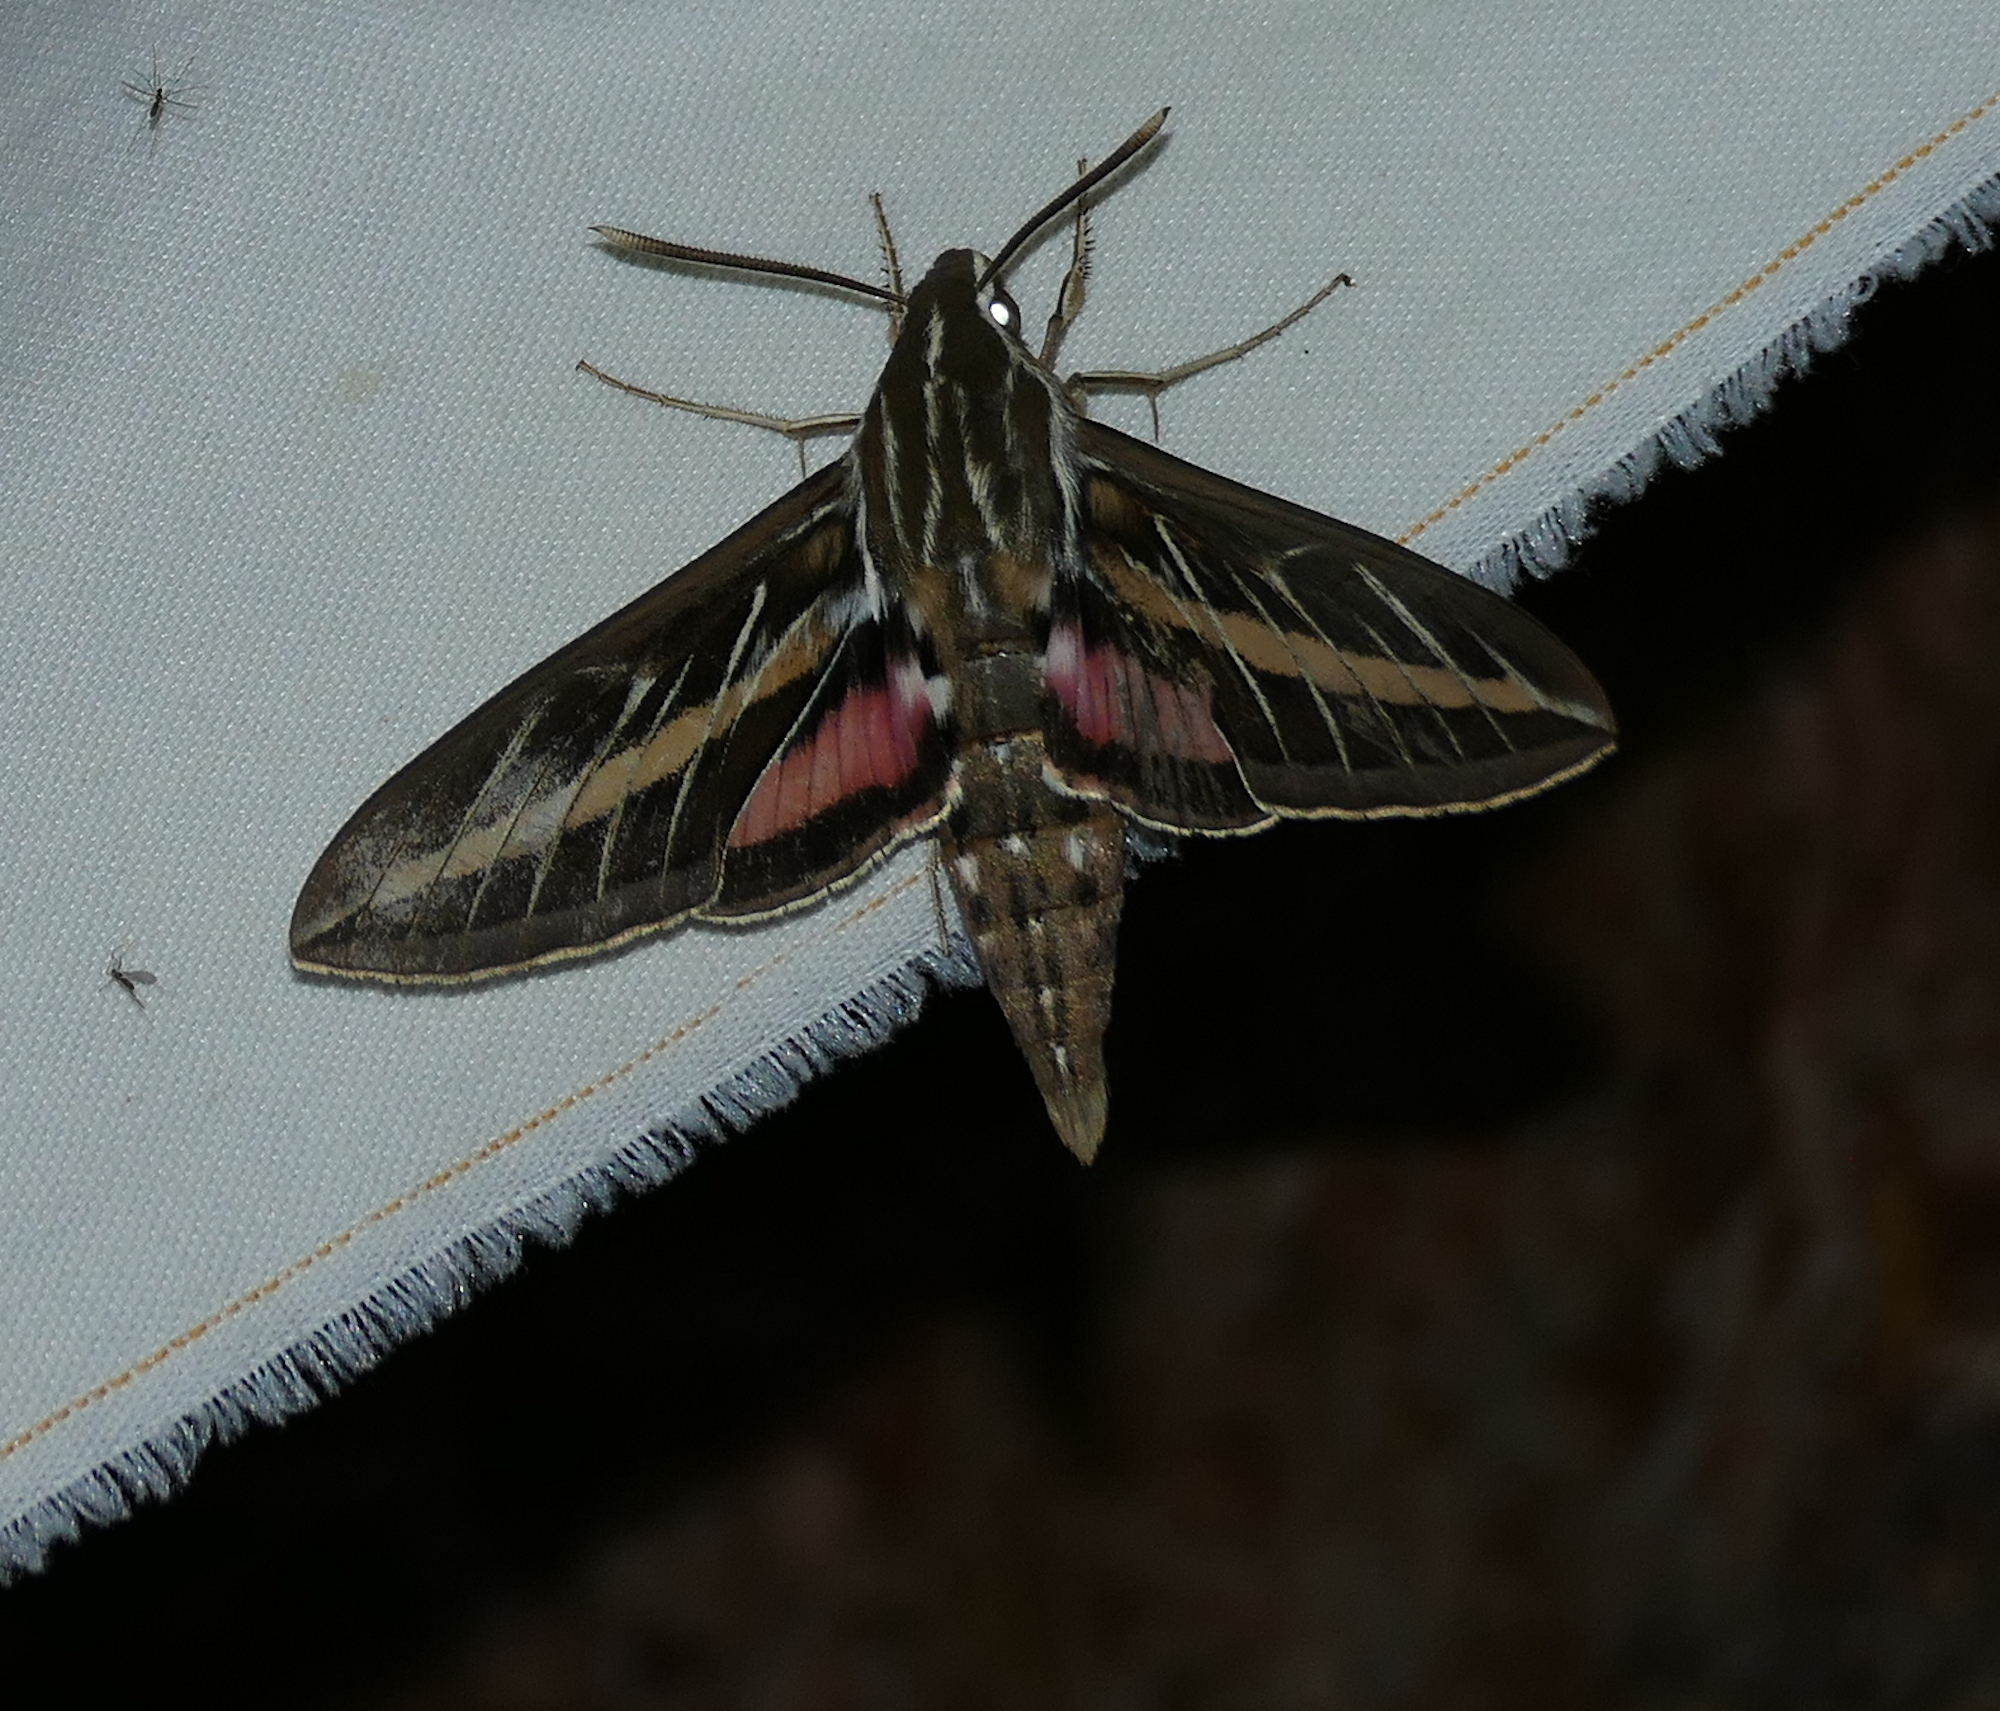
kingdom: Animalia
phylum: Arthropoda
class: Insecta
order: Lepidoptera
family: Sphingidae
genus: Hyles
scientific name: Hyles lineata
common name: White-lined sphinx
